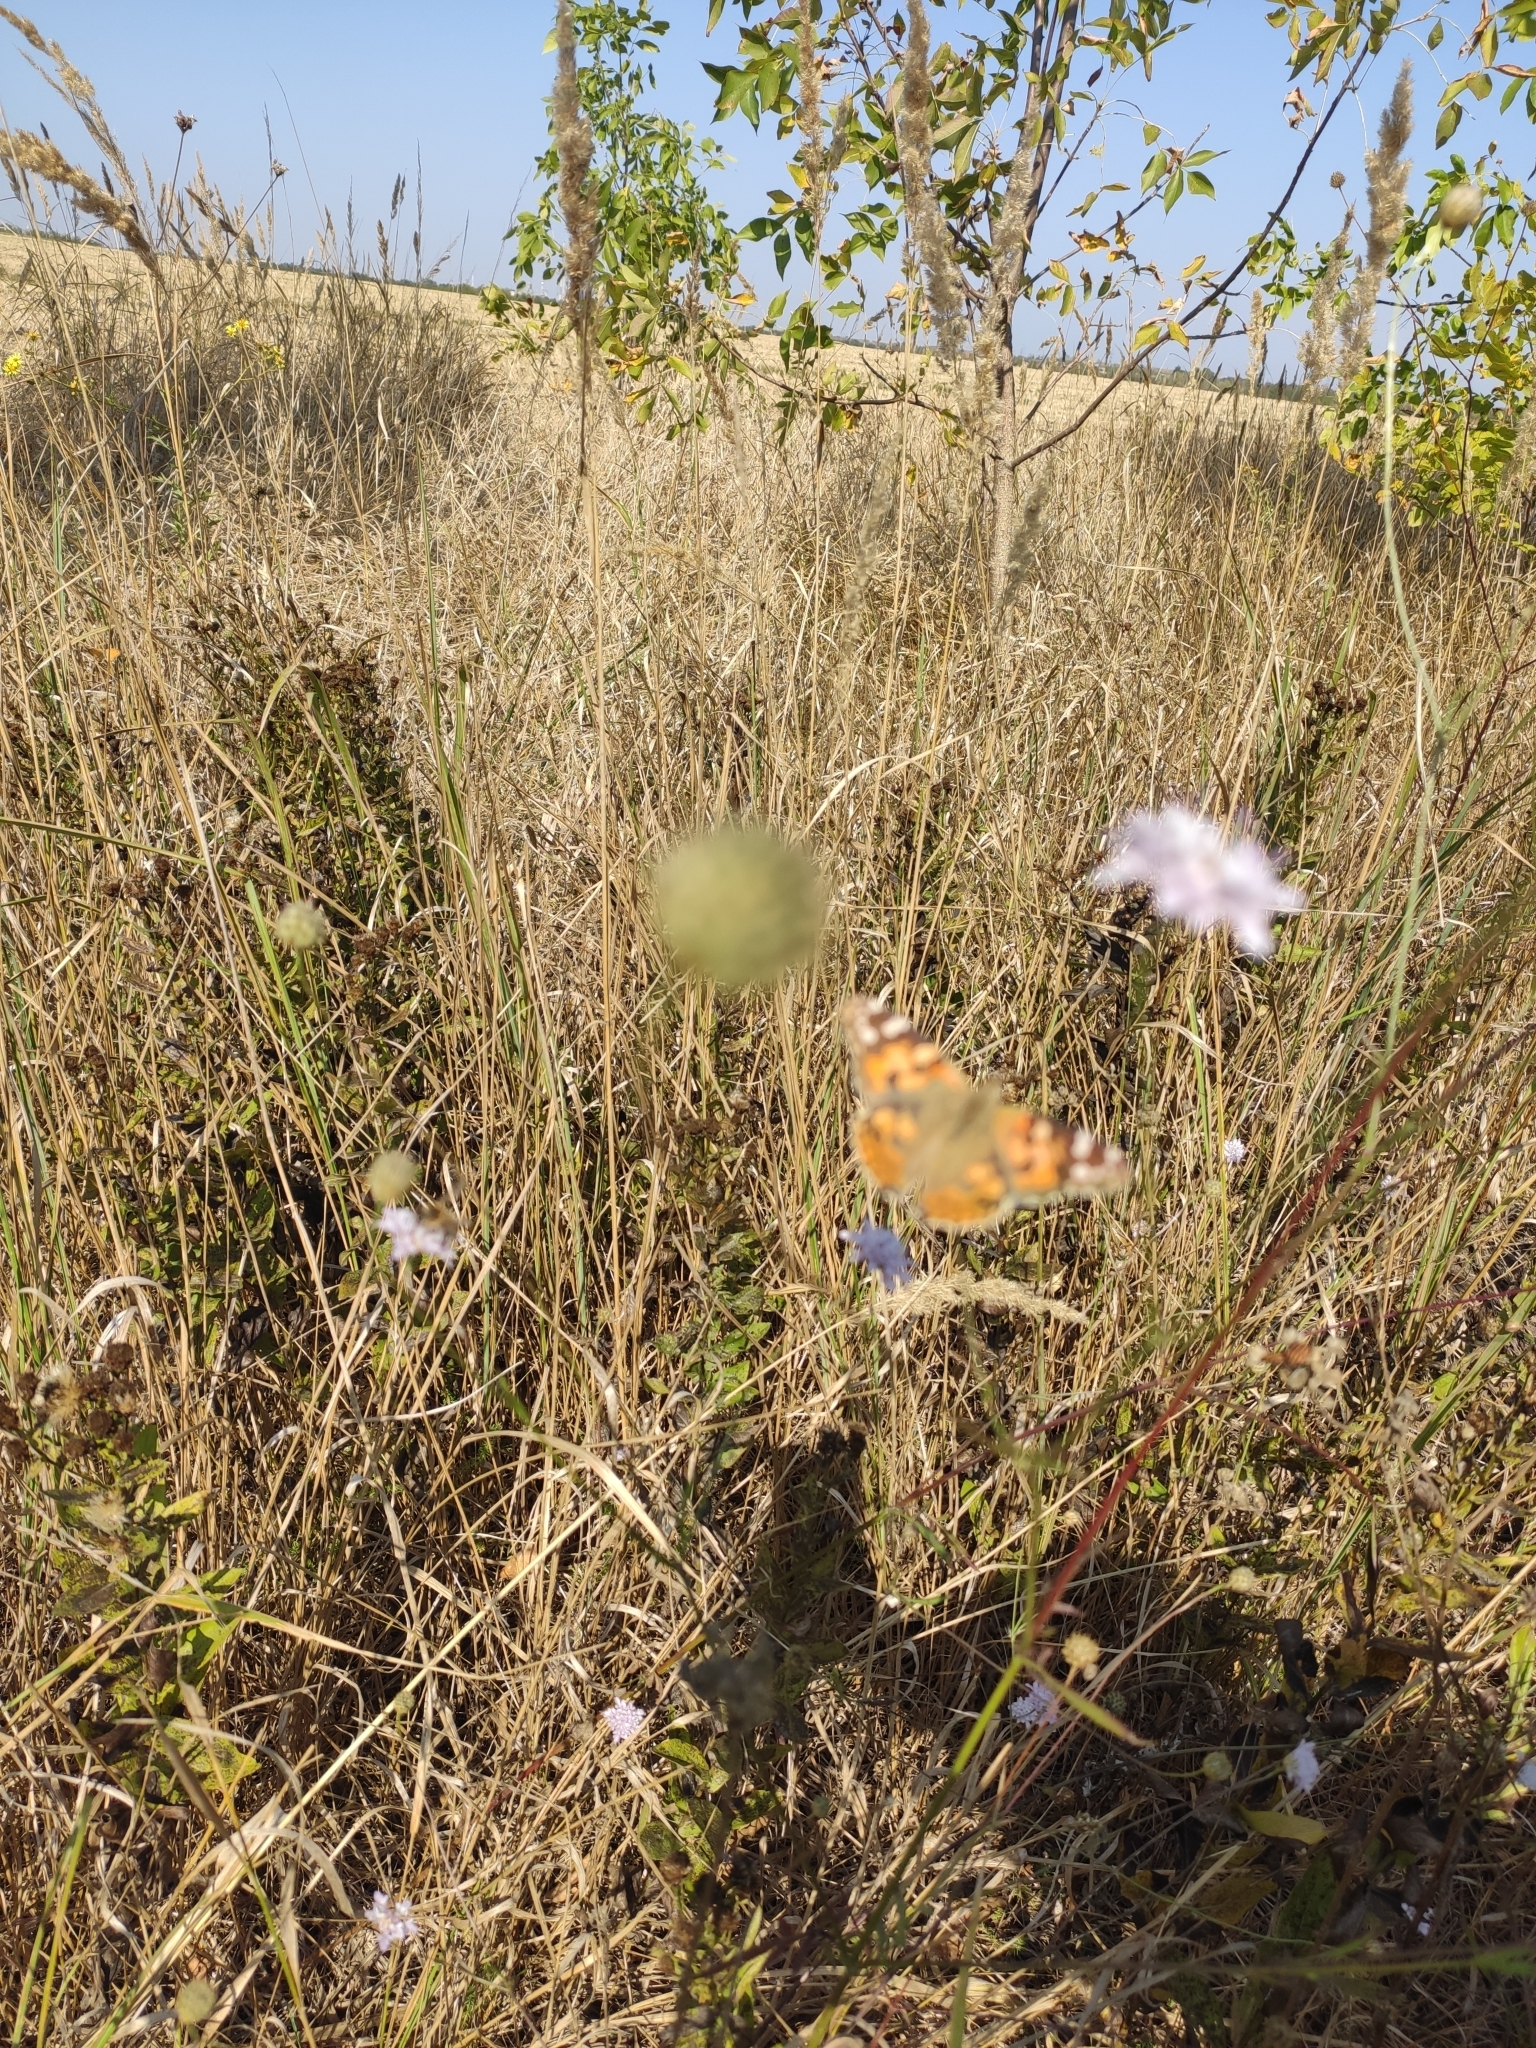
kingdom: Animalia
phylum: Arthropoda
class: Insecta
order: Lepidoptera
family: Nymphalidae
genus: Vanessa
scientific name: Vanessa cardui
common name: Painted lady
